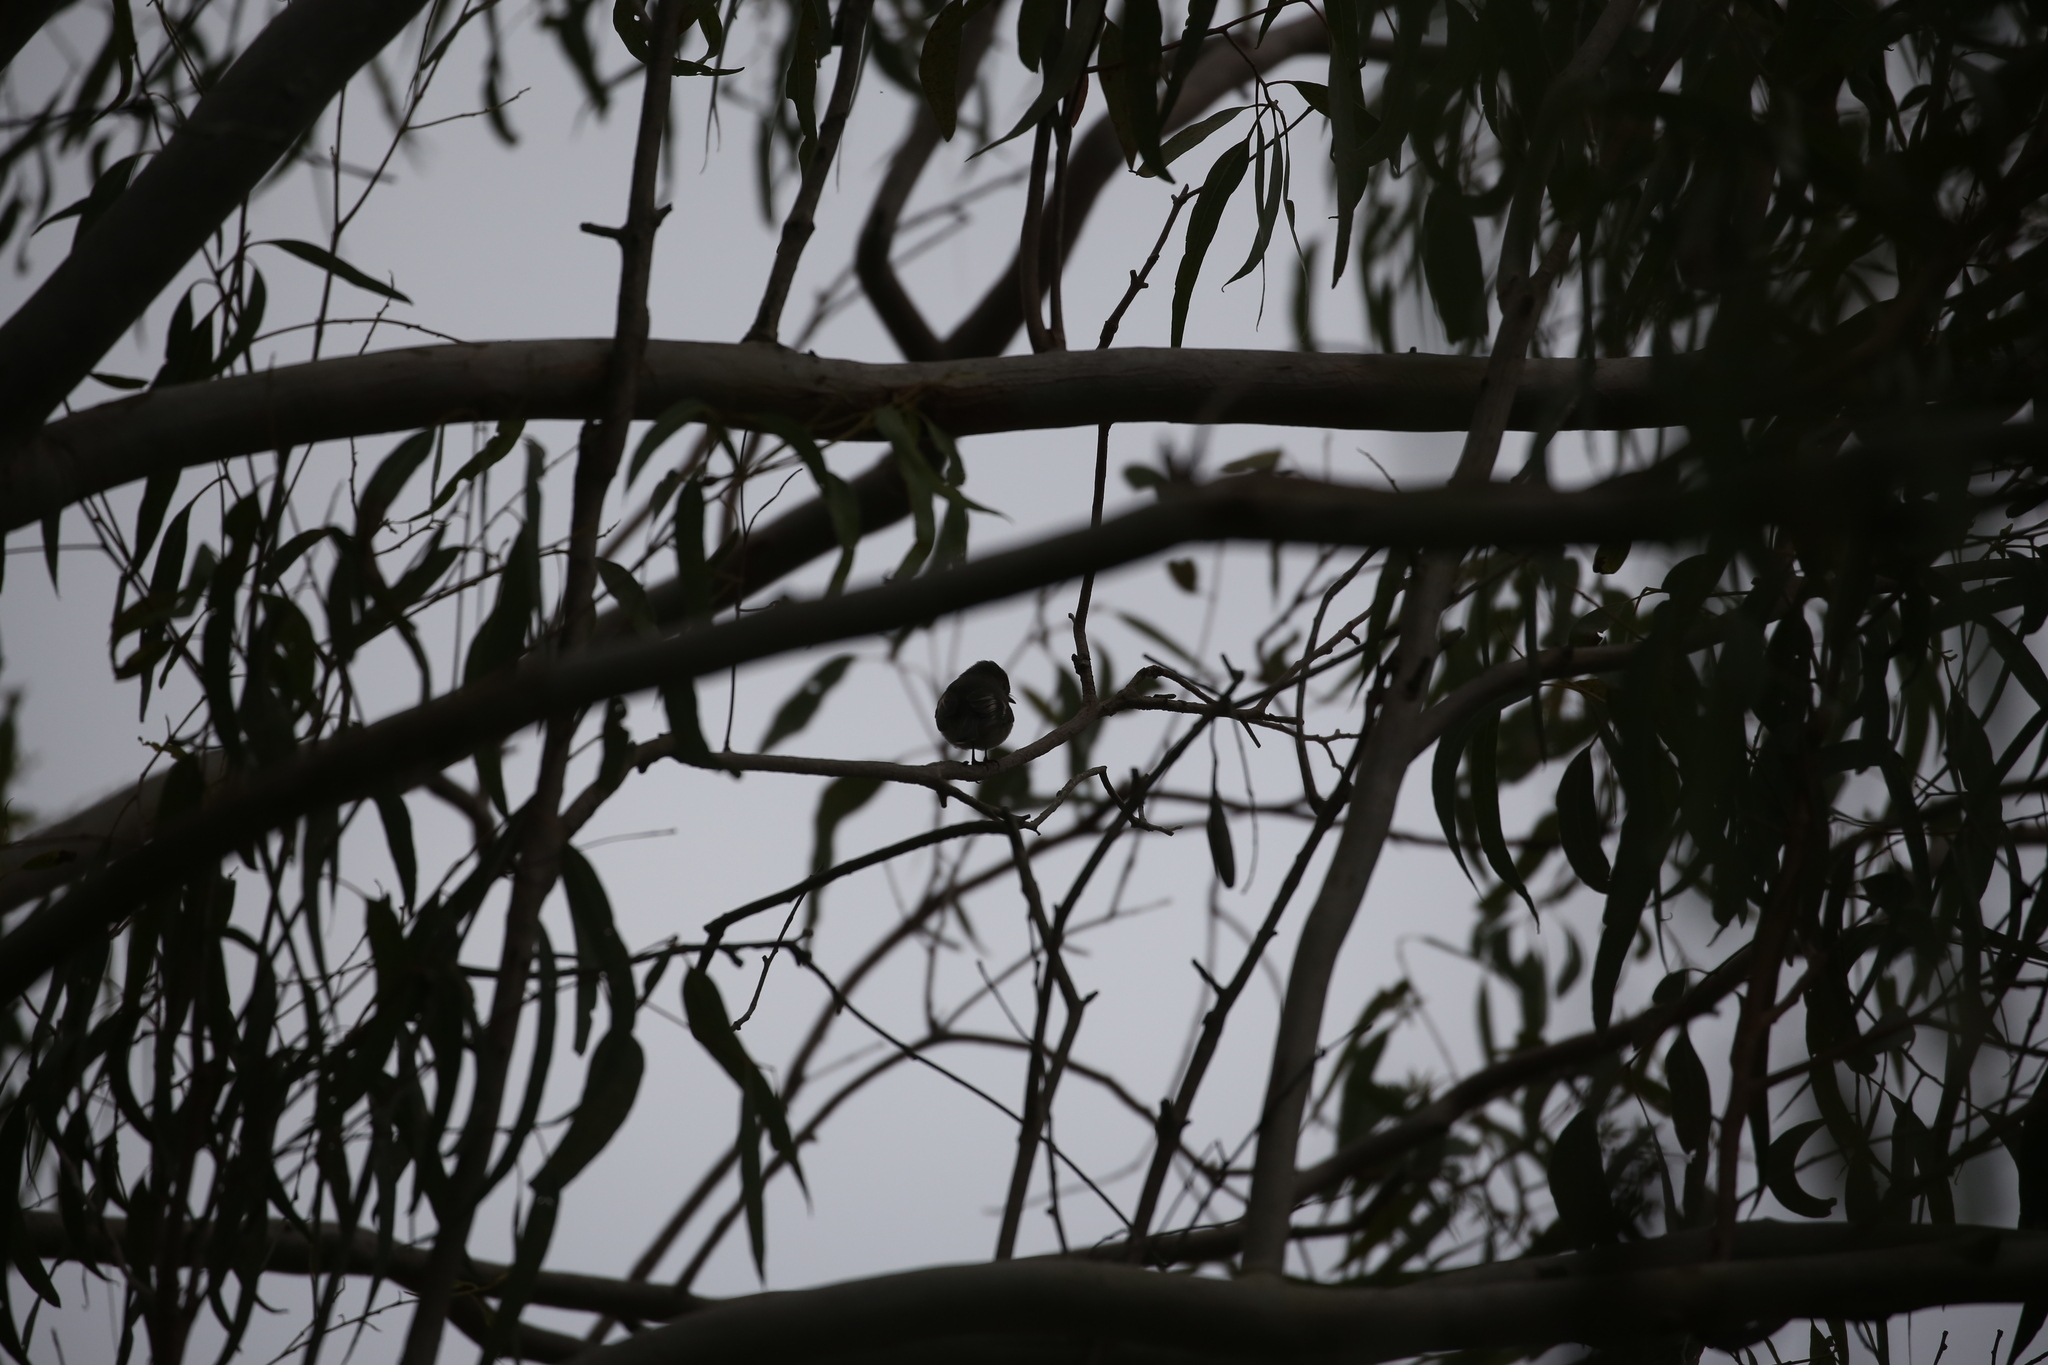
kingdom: Animalia
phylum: Chordata
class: Aves
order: Passeriformes
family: Petroicidae
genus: Petroica
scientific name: Petroica rosea
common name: Rose robin
